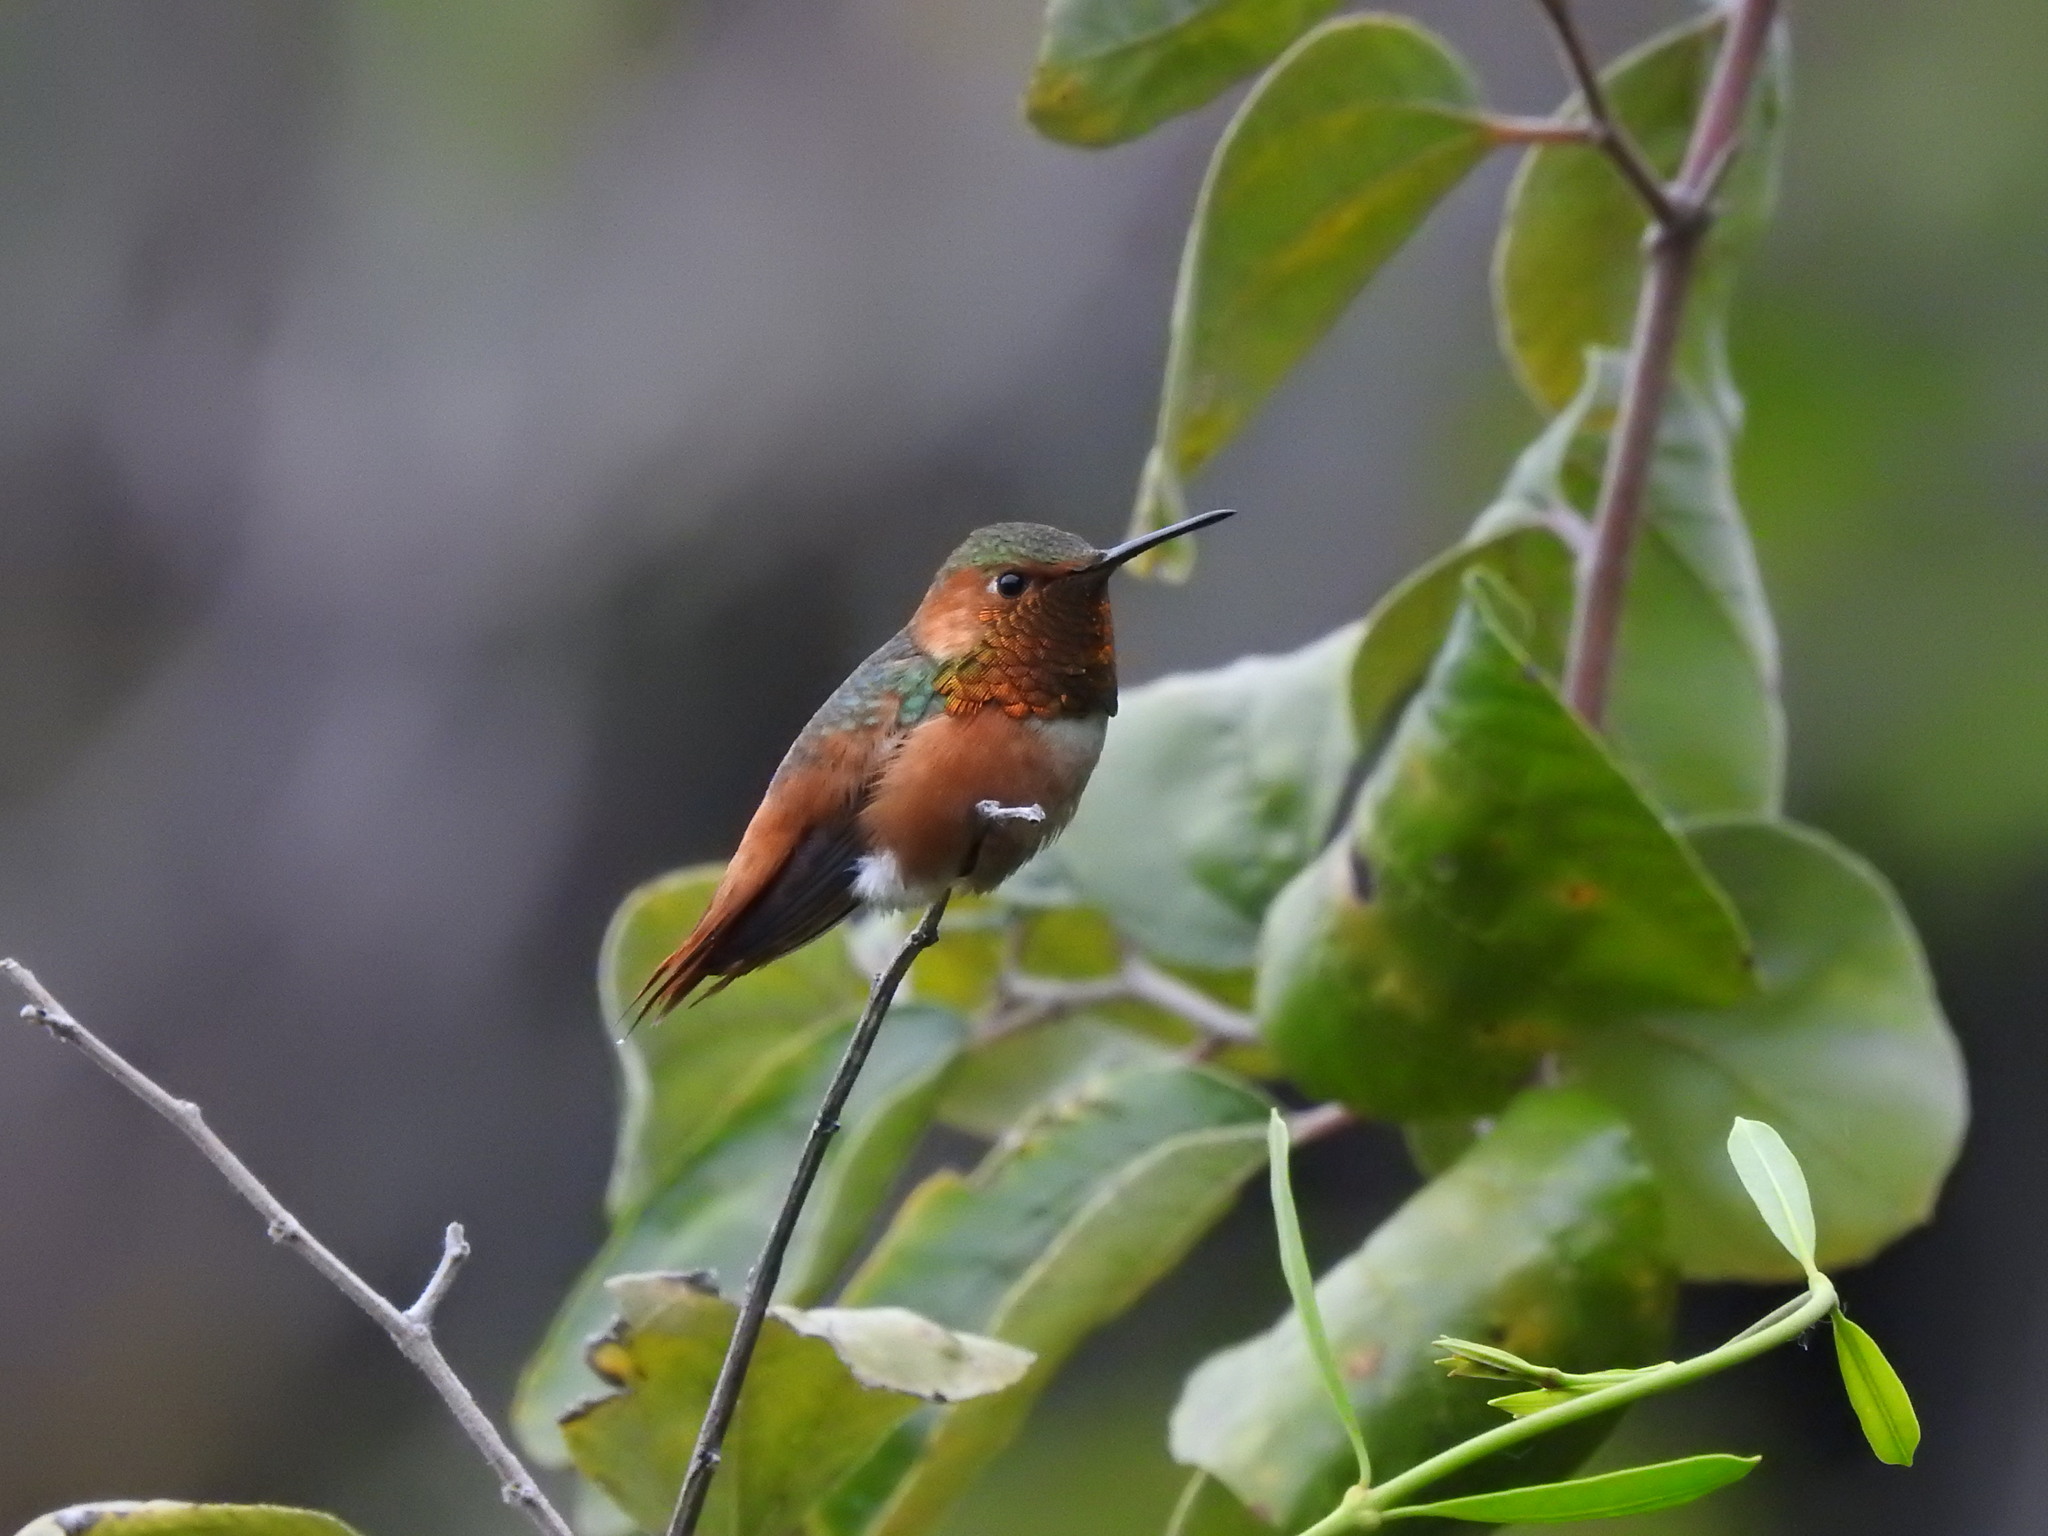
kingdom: Animalia
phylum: Chordata
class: Aves
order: Apodiformes
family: Trochilidae
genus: Selasphorus
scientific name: Selasphorus sasin
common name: Allen's hummingbird
